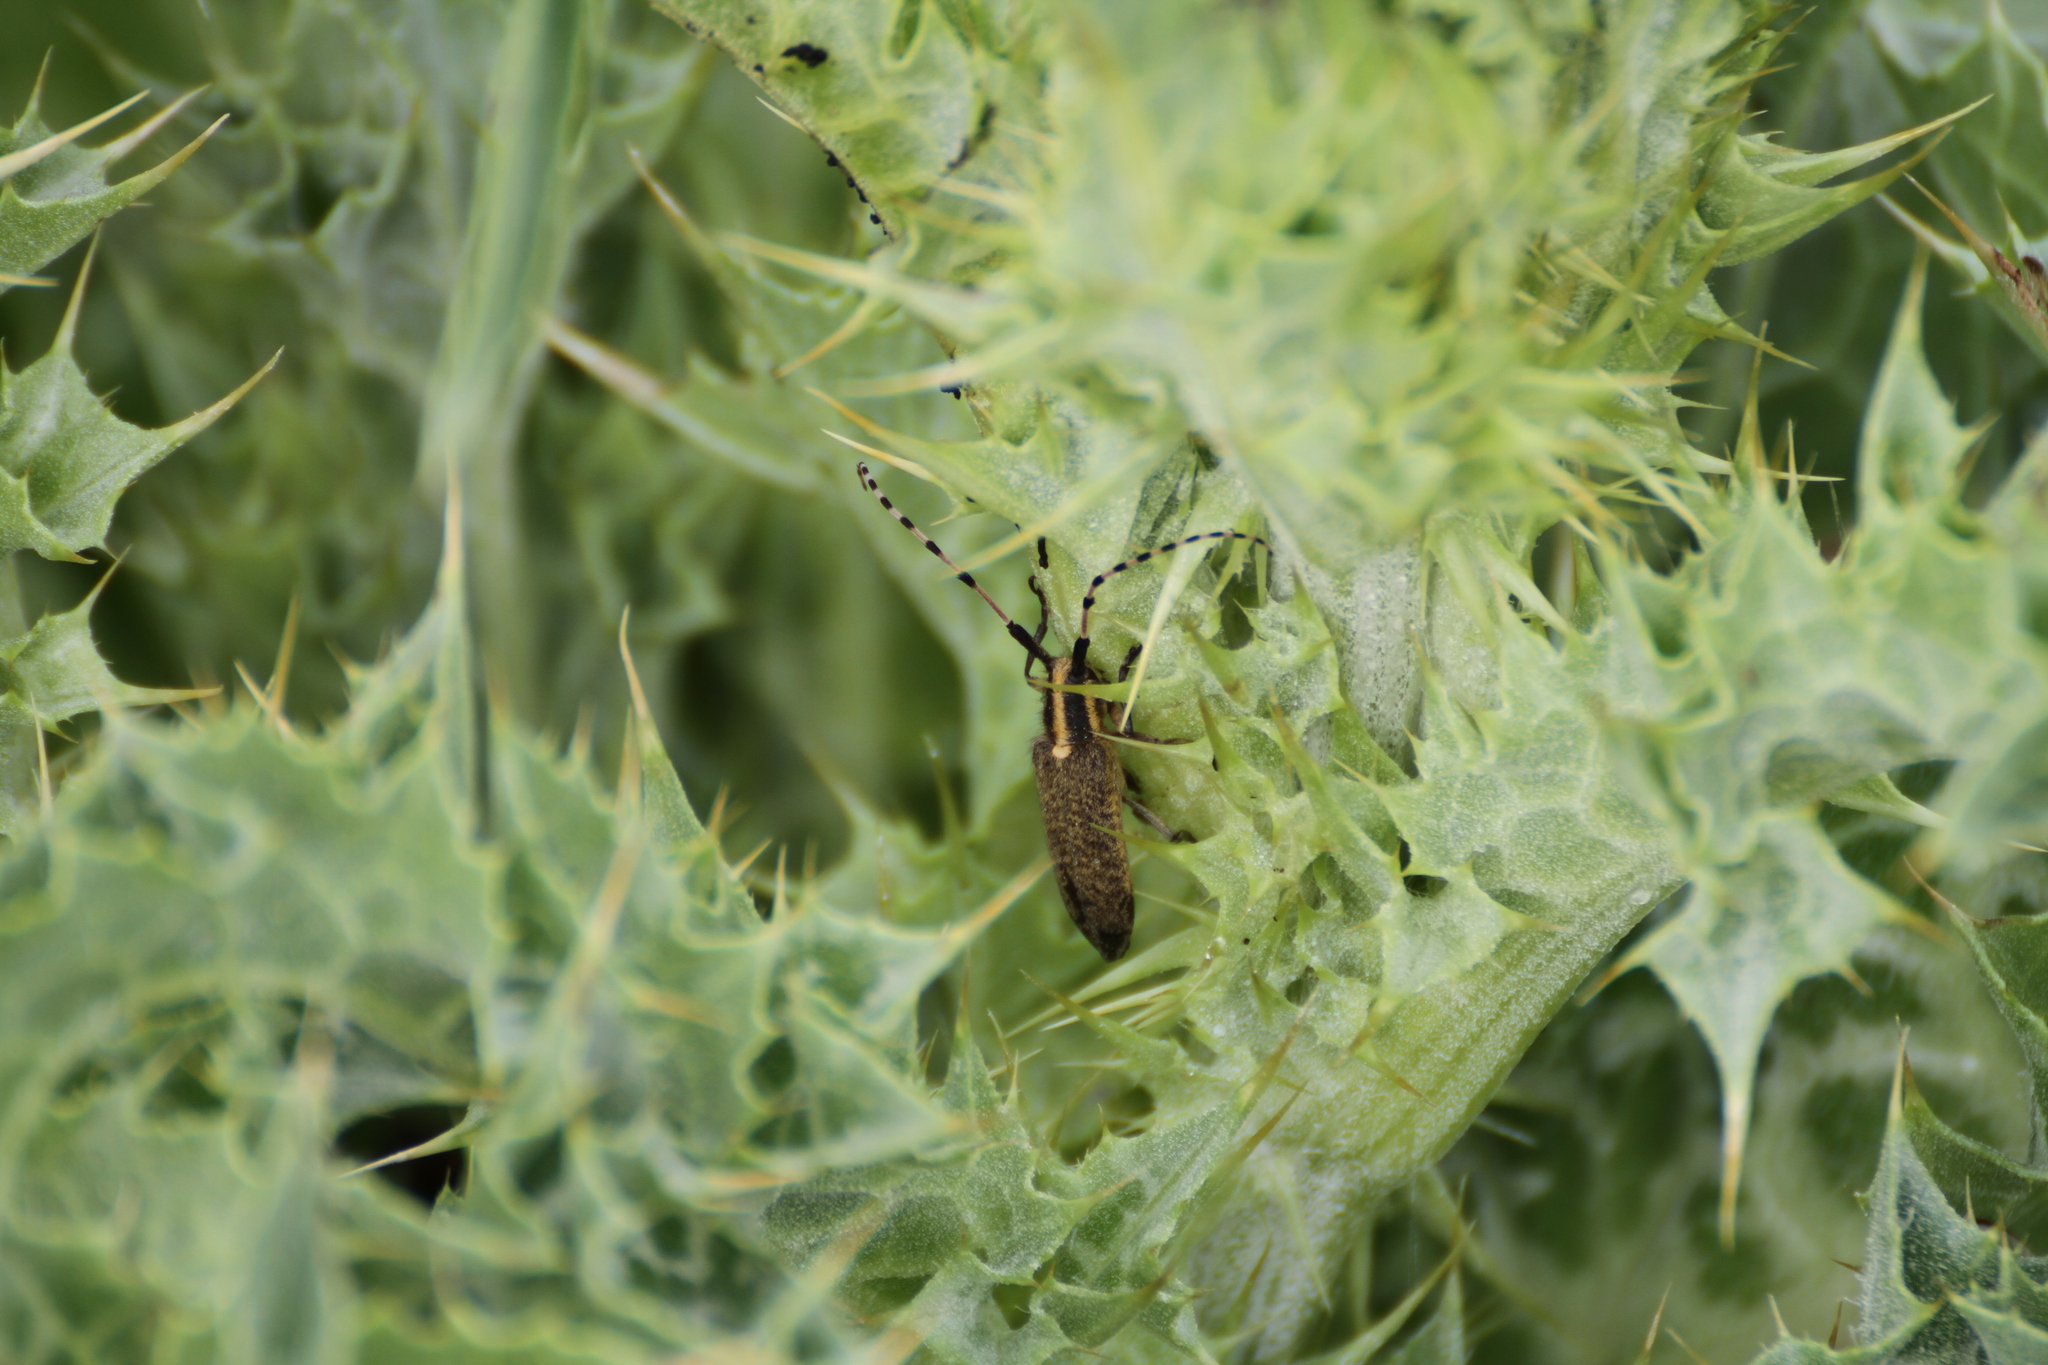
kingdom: Animalia
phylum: Arthropoda
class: Insecta
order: Coleoptera
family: Cerambycidae
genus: Agapanthia
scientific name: Agapanthia dahlii
